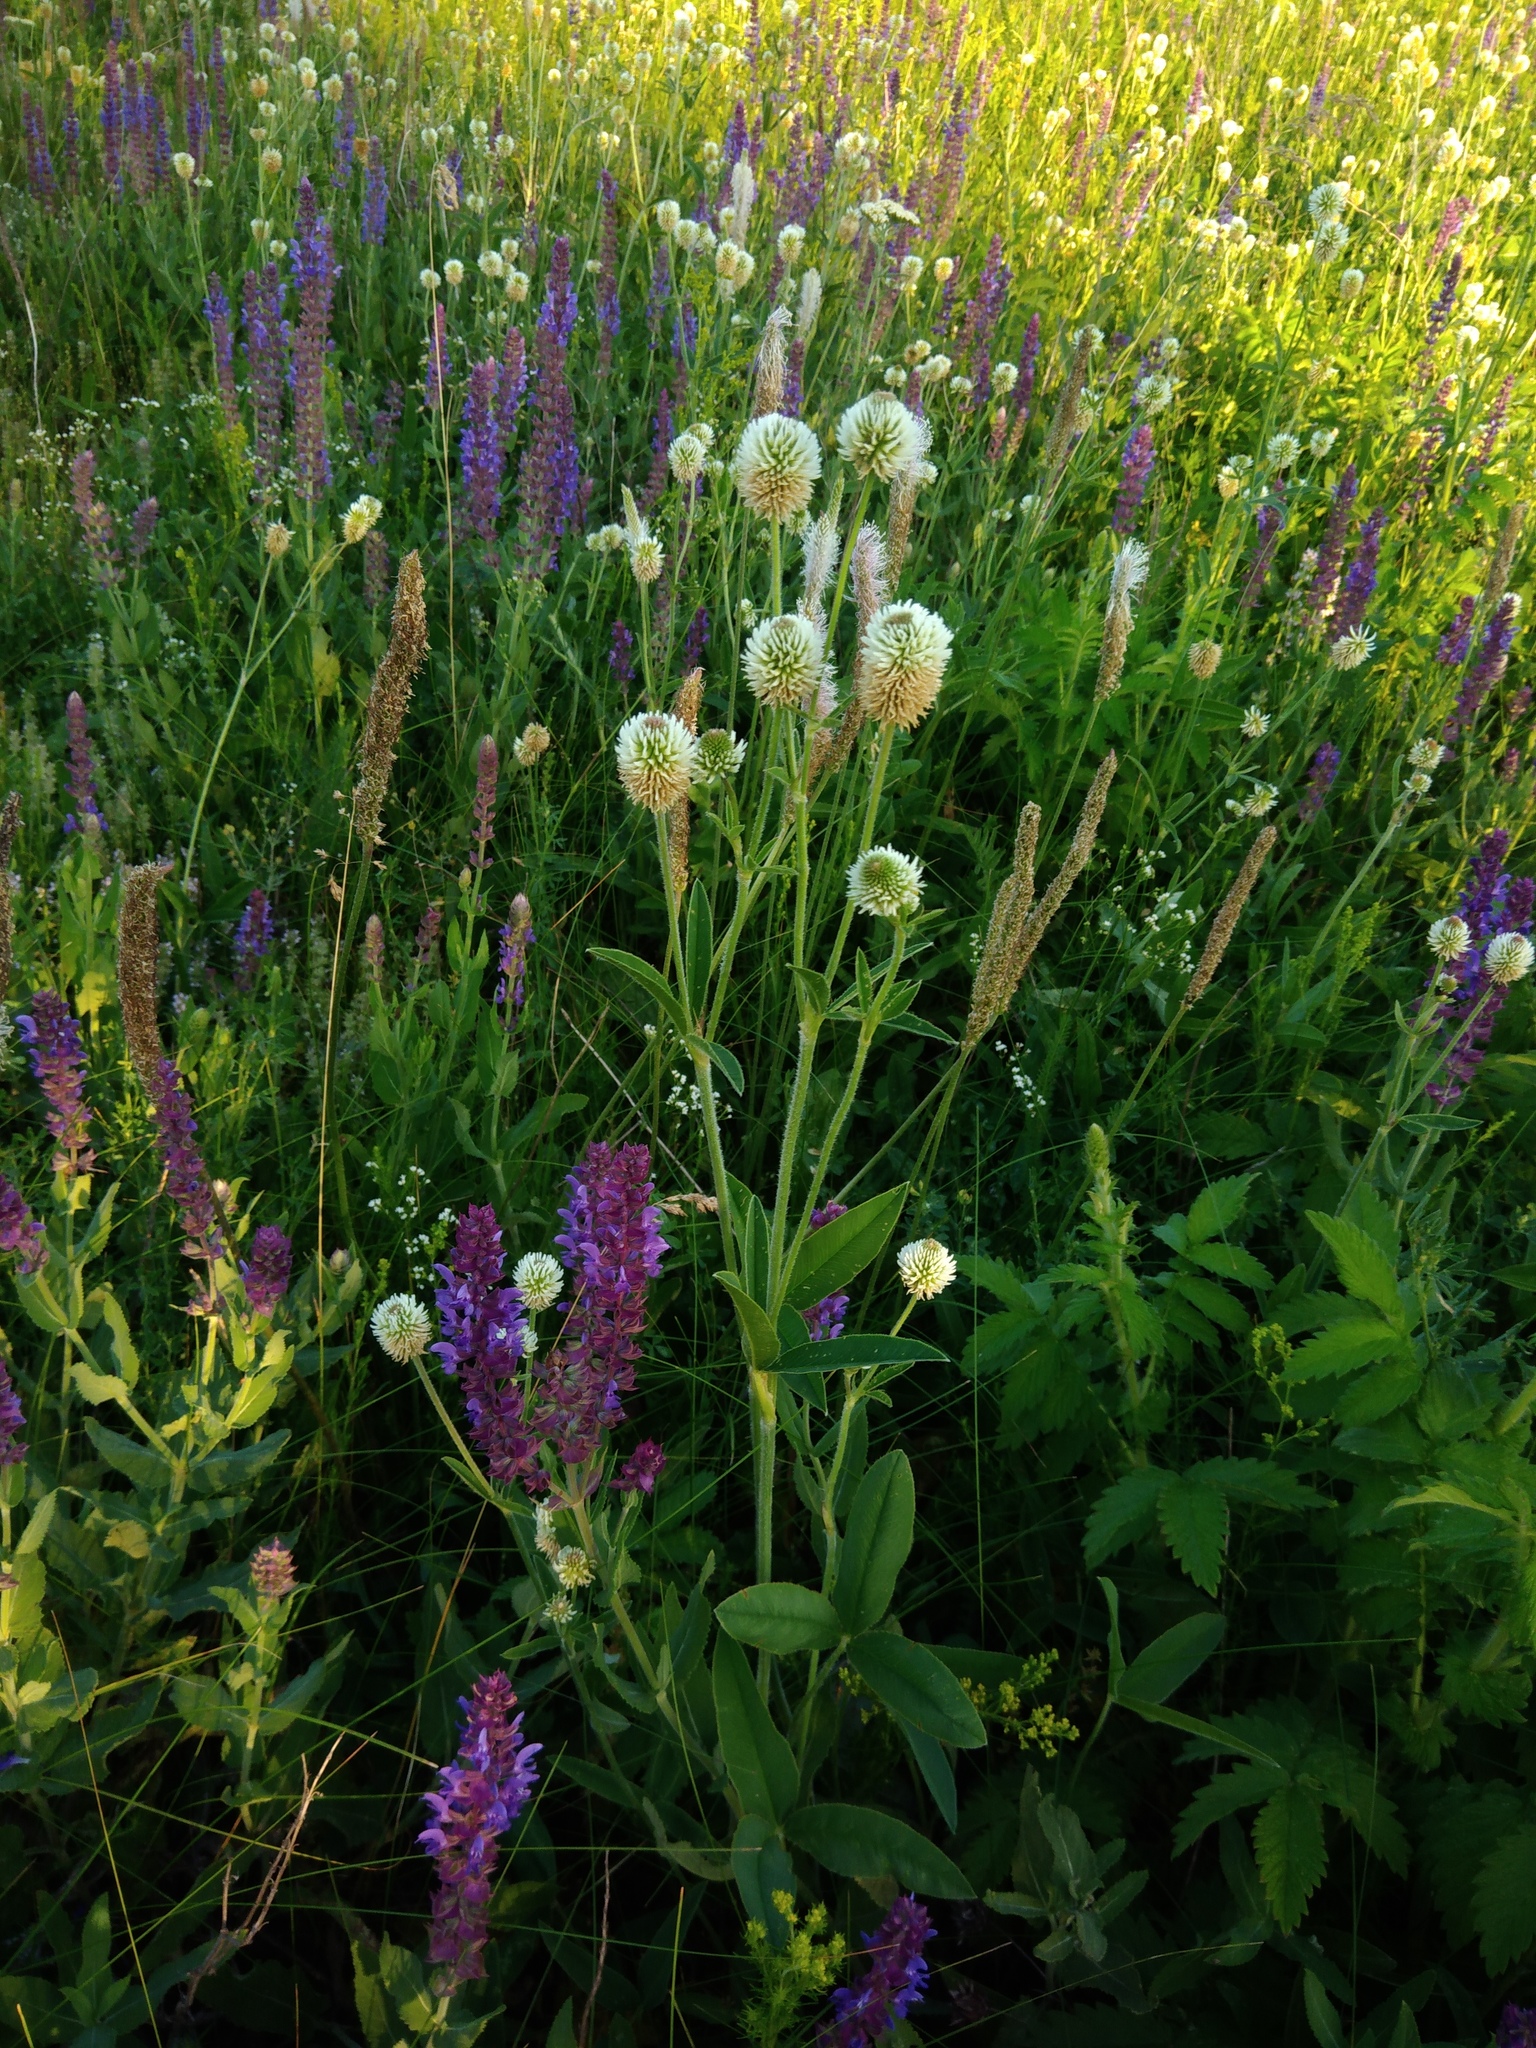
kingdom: Plantae
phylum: Tracheophyta
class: Magnoliopsida
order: Fabales
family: Fabaceae
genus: Trifolium
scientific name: Trifolium montanum
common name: Mountain clover
